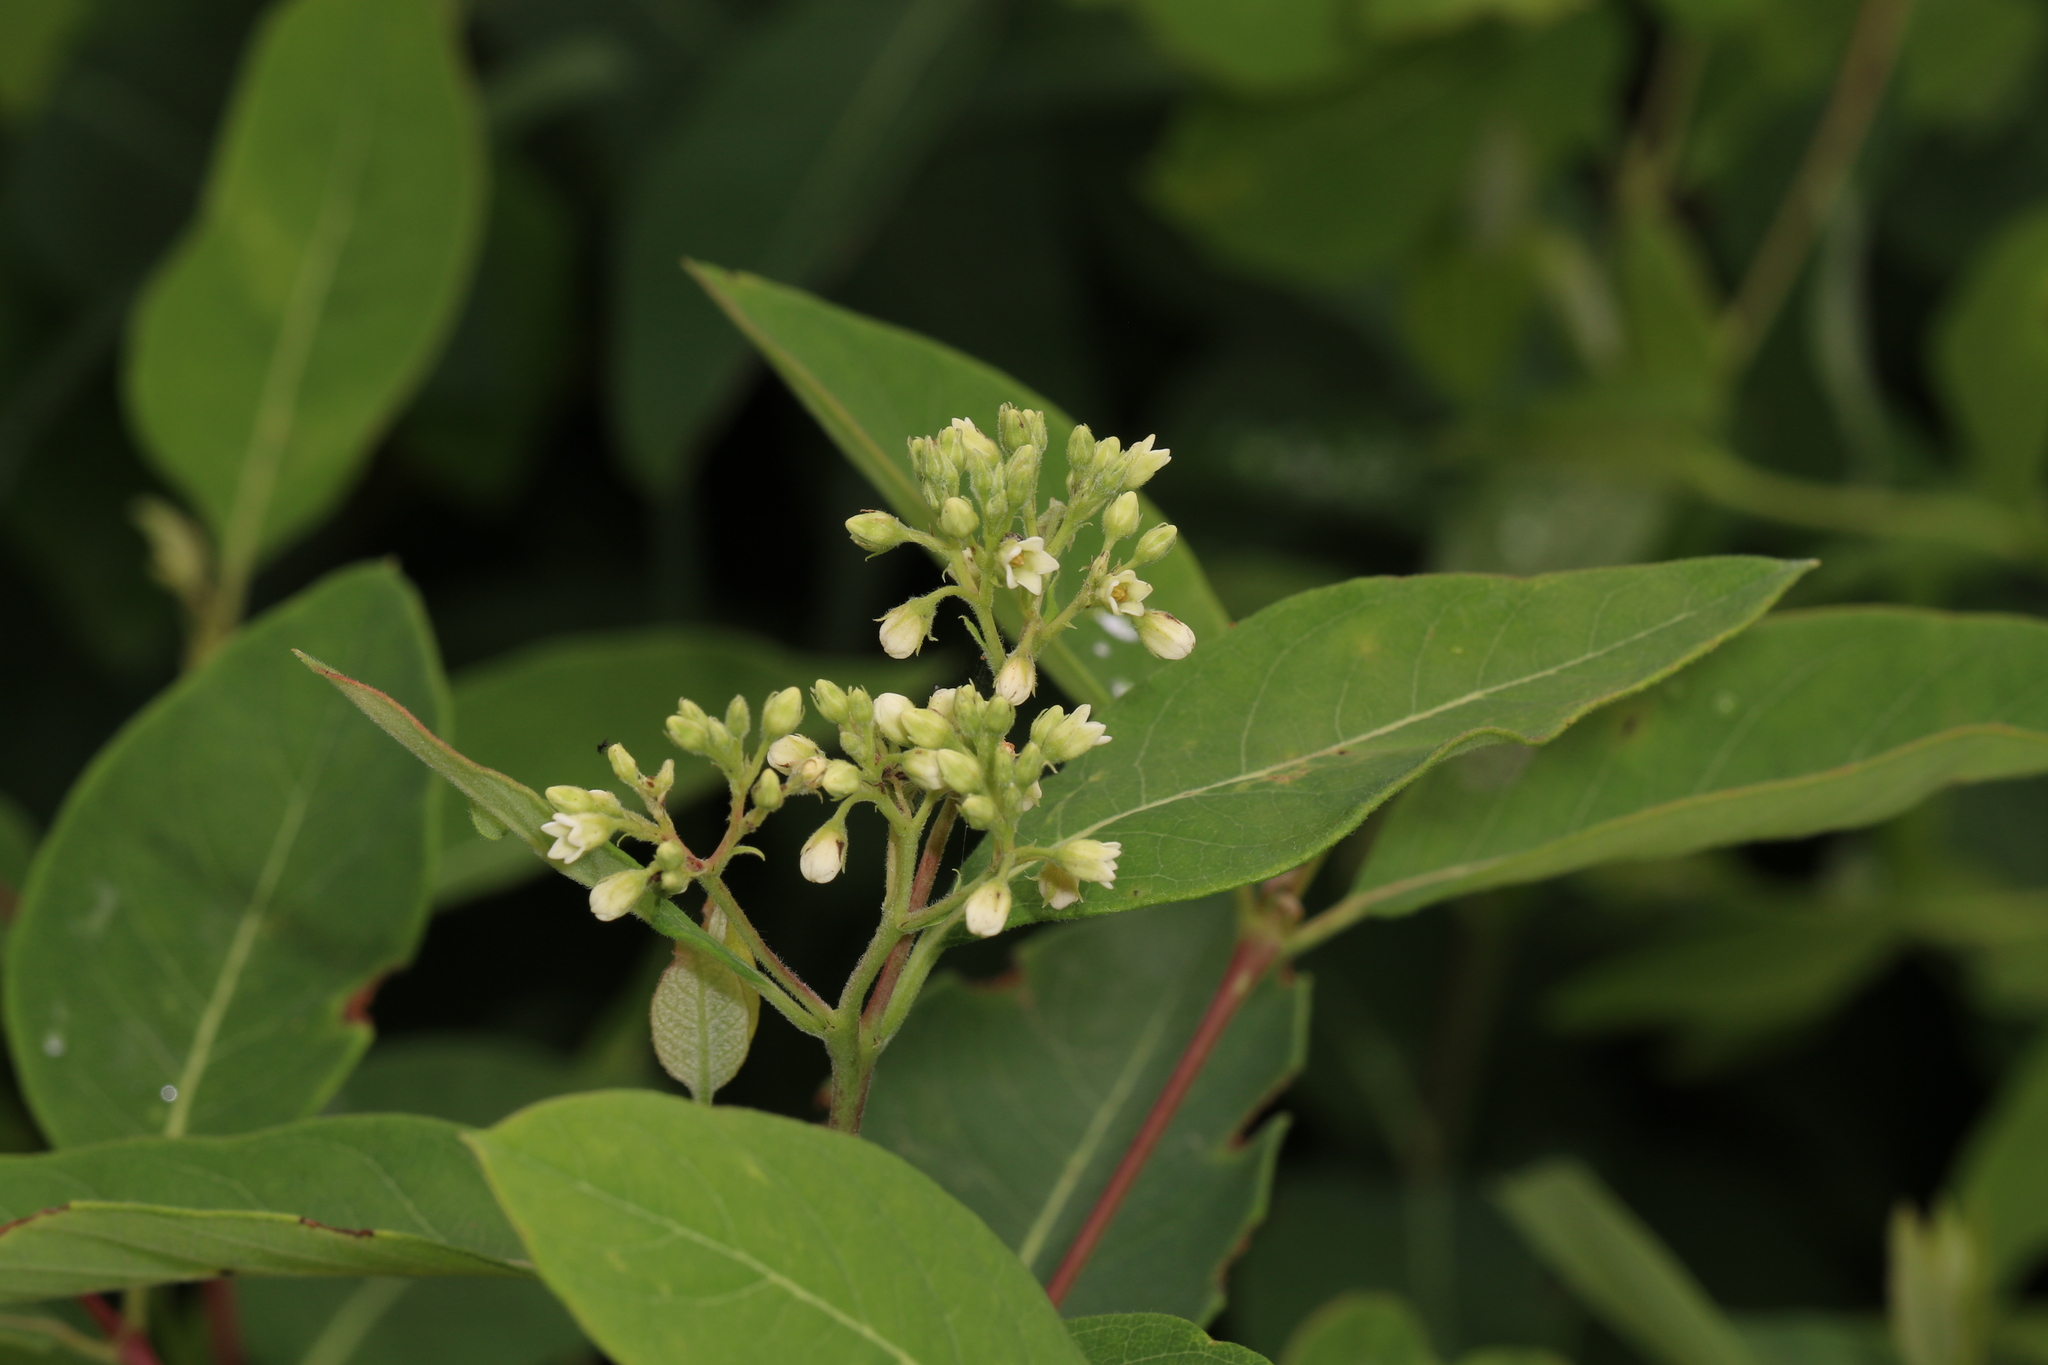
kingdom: Plantae
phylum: Tracheophyta
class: Magnoliopsida
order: Gentianales
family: Apocynaceae
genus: Apocynum
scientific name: Apocynum cannabinum
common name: Hemp dogbane
